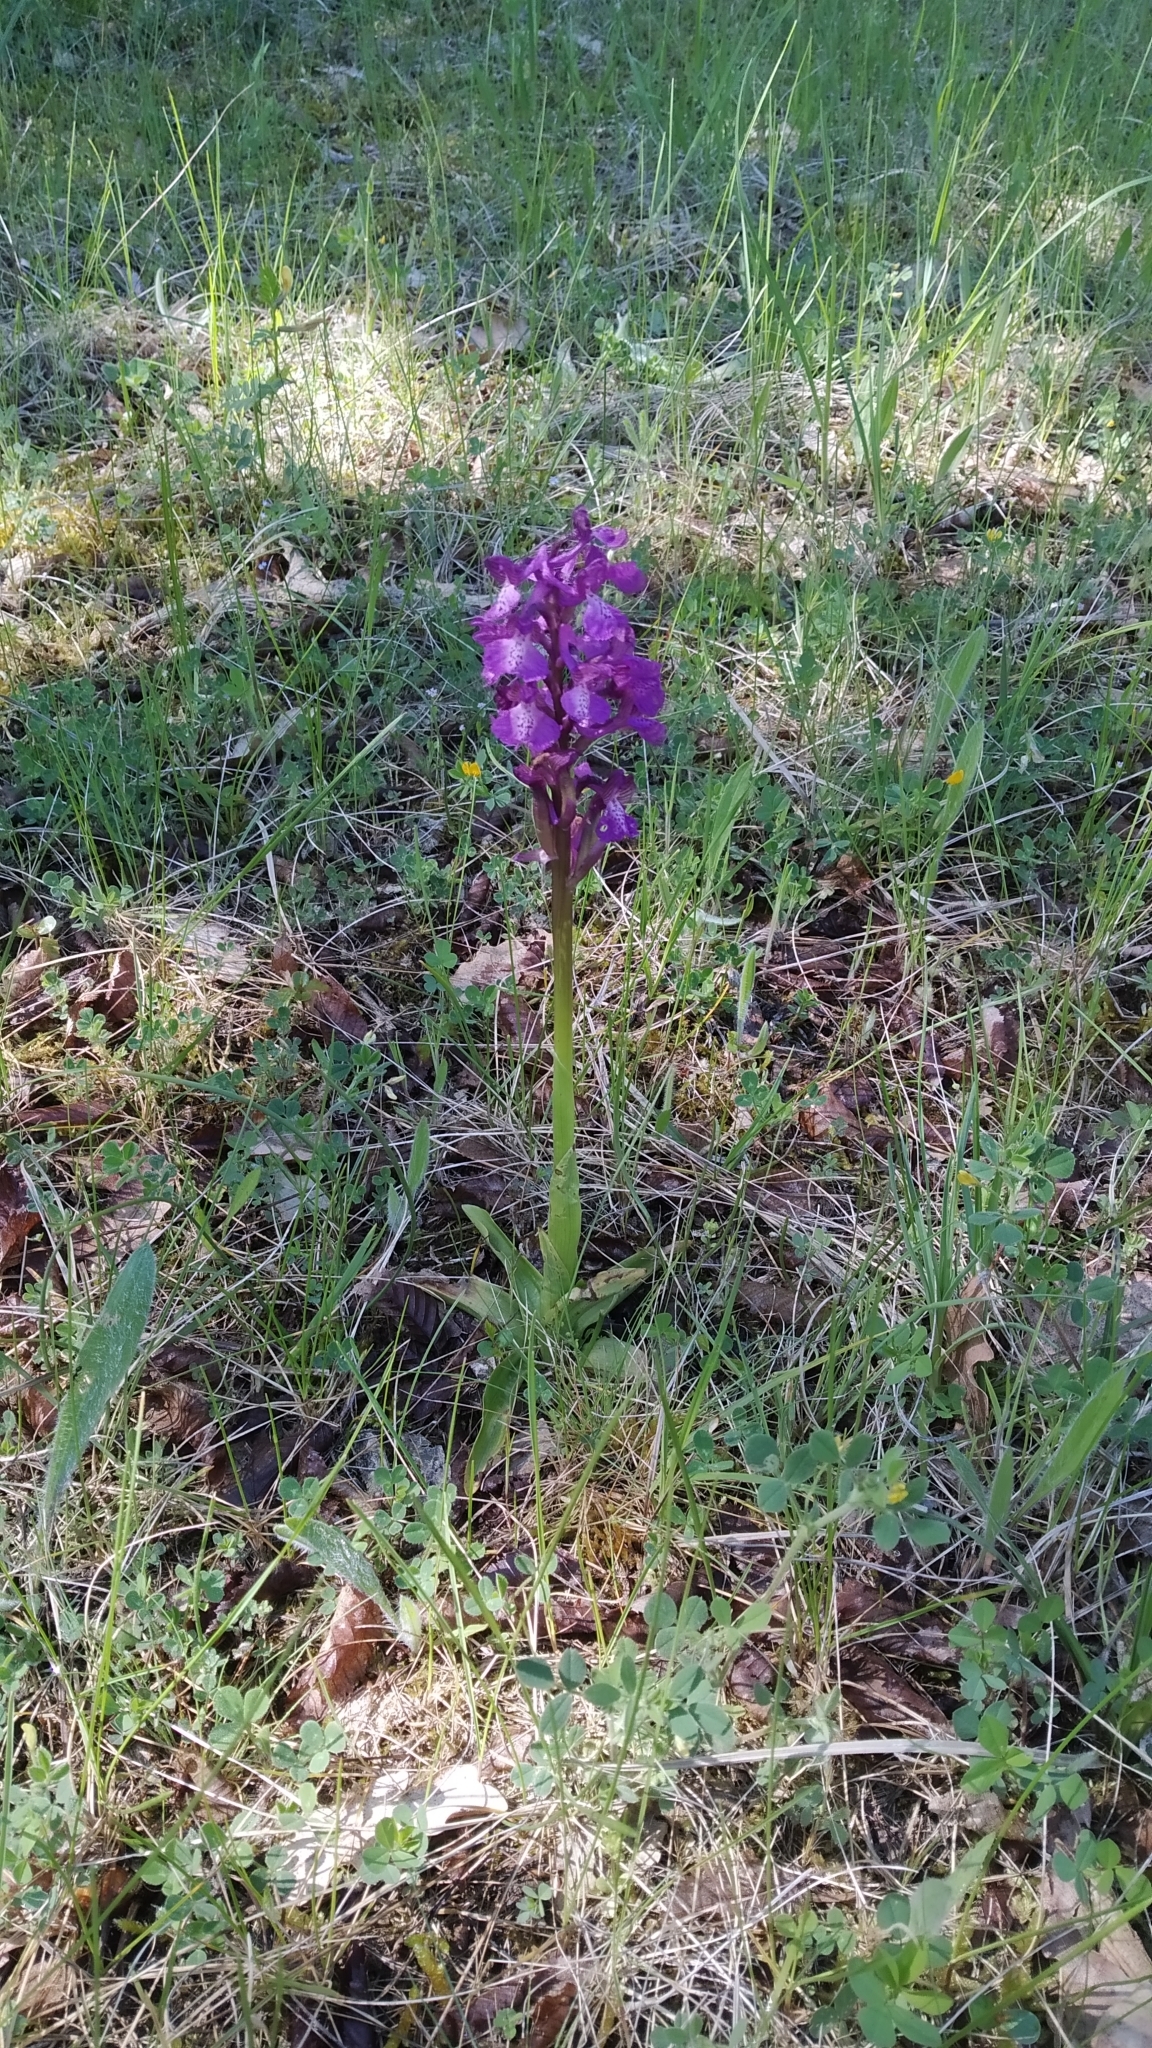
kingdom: Plantae
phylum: Tracheophyta
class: Liliopsida
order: Asparagales
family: Orchidaceae
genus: Anacamptis
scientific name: Anacamptis morio
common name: Green-winged orchid
